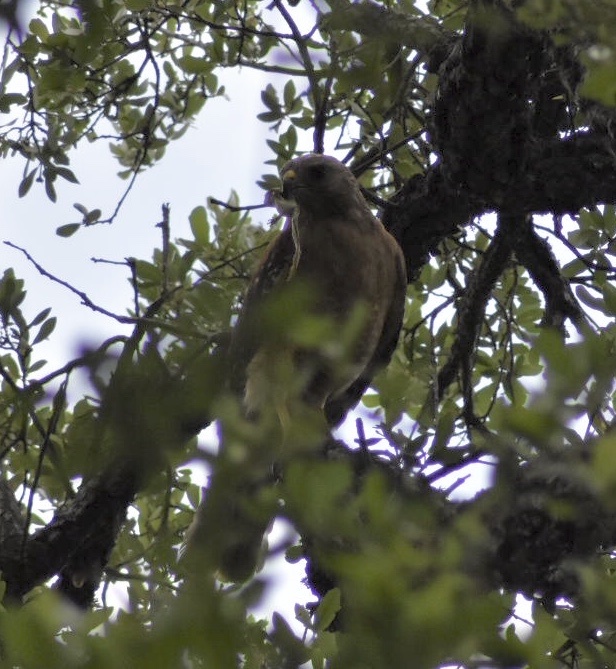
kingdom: Animalia
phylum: Chordata
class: Aves
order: Accipitriformes
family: Accipitridae
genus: Buteo
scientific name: Buteo lineatus
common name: Red-shouldered hawk
